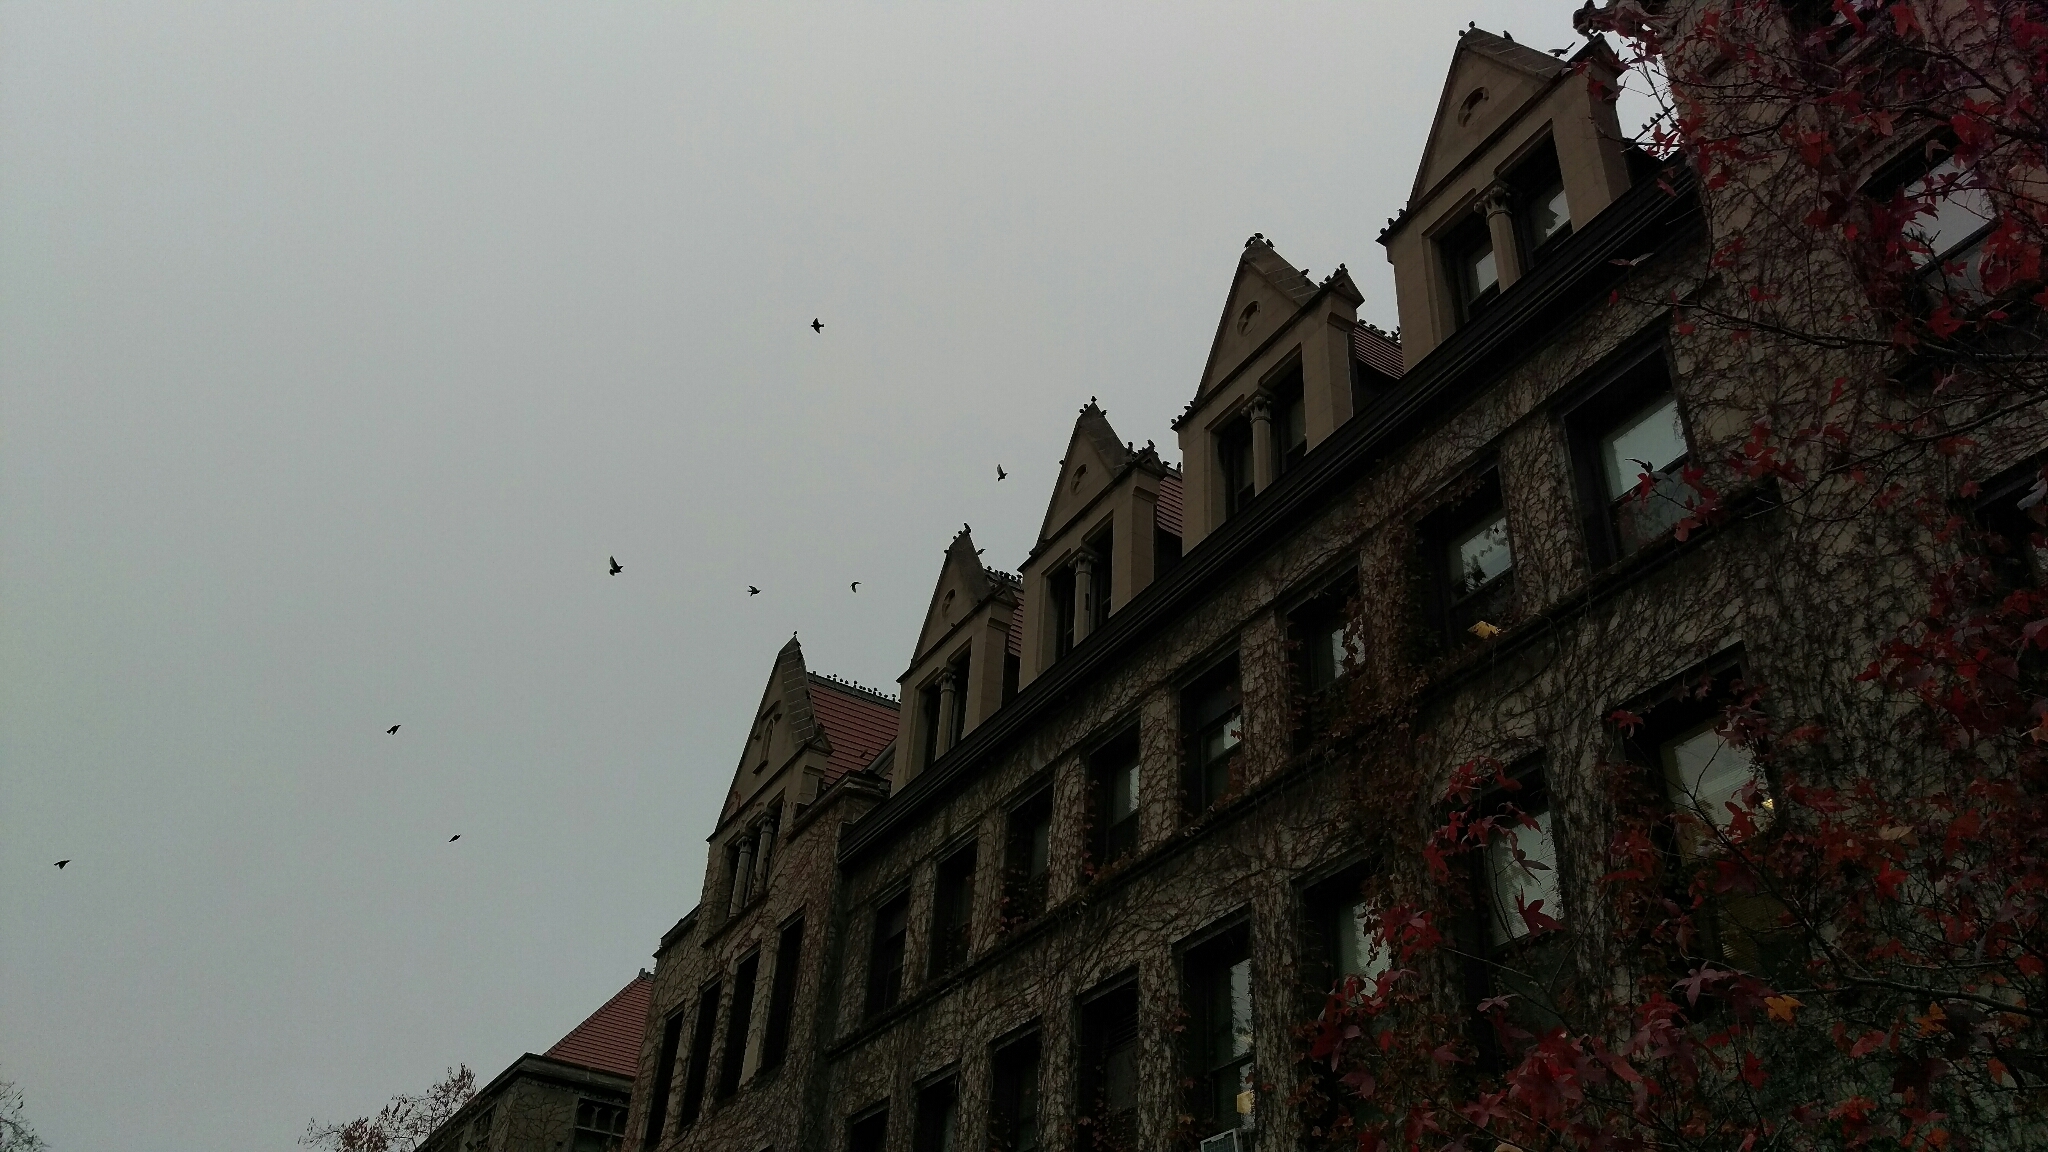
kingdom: Animalia
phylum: Chordata
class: Aves
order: Passeriformes
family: Sturnidae
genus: Sturnus
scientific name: Sturnus vulgaris
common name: Common starling
